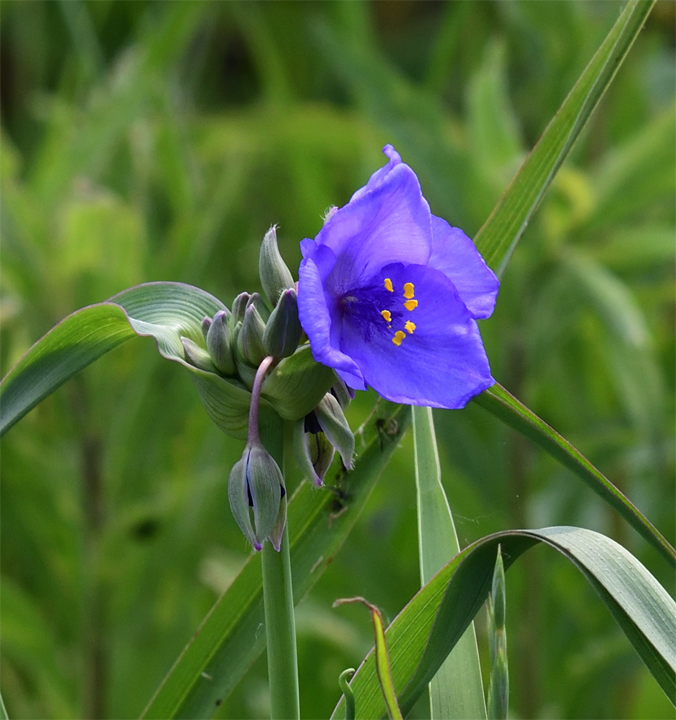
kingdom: Plantae
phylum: Tracheophyta
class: Liliopsida
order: Commelinales
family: Commelinaceae
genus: Tradescantia
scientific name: Tradescantia ohiensis
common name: Ohio spiderwort
